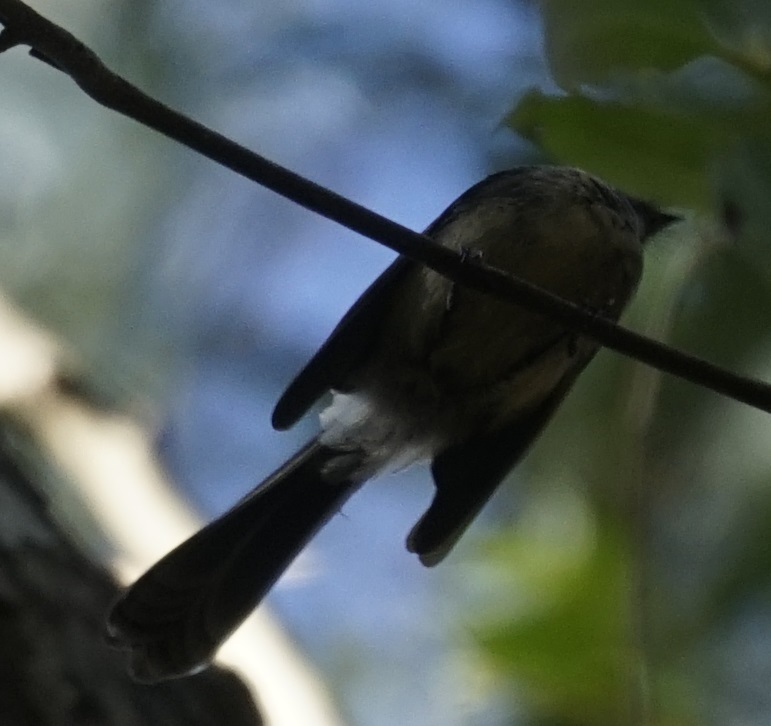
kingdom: Animalia
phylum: Chordata
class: Aves
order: Passeriformes
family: Rhipiduridae
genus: Rhipidura
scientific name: Rhipidura albiscapa
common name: Grey fantail
